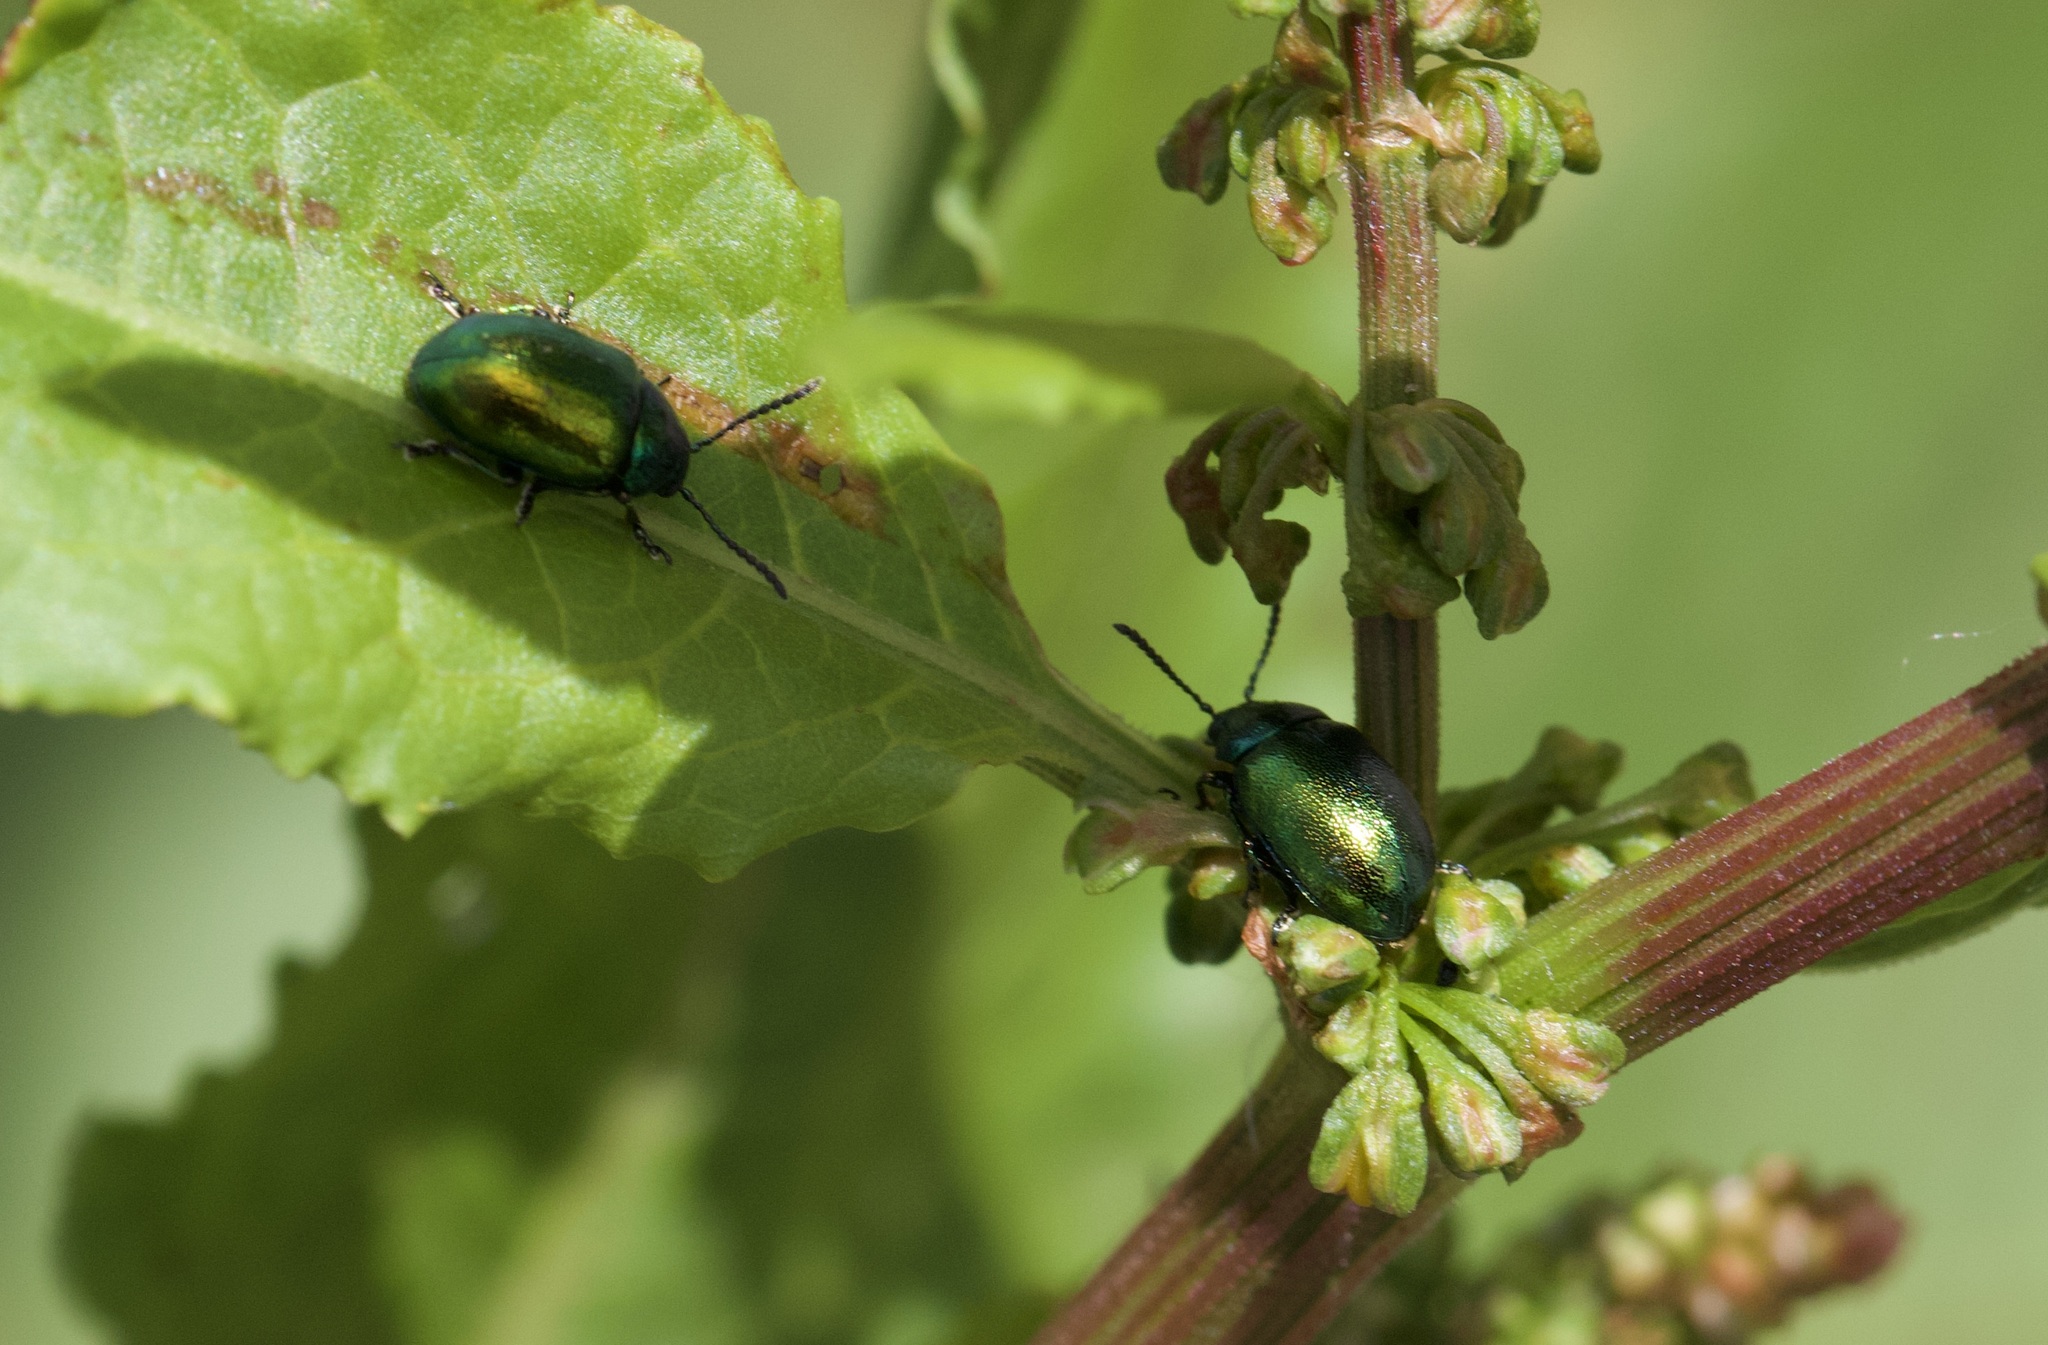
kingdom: Animalia
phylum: Arthropoda
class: Insecta
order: Coleoptera
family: Chrysomelidae
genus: Gastrophysa
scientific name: Gastrophysa viridula
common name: Green dock beetle
